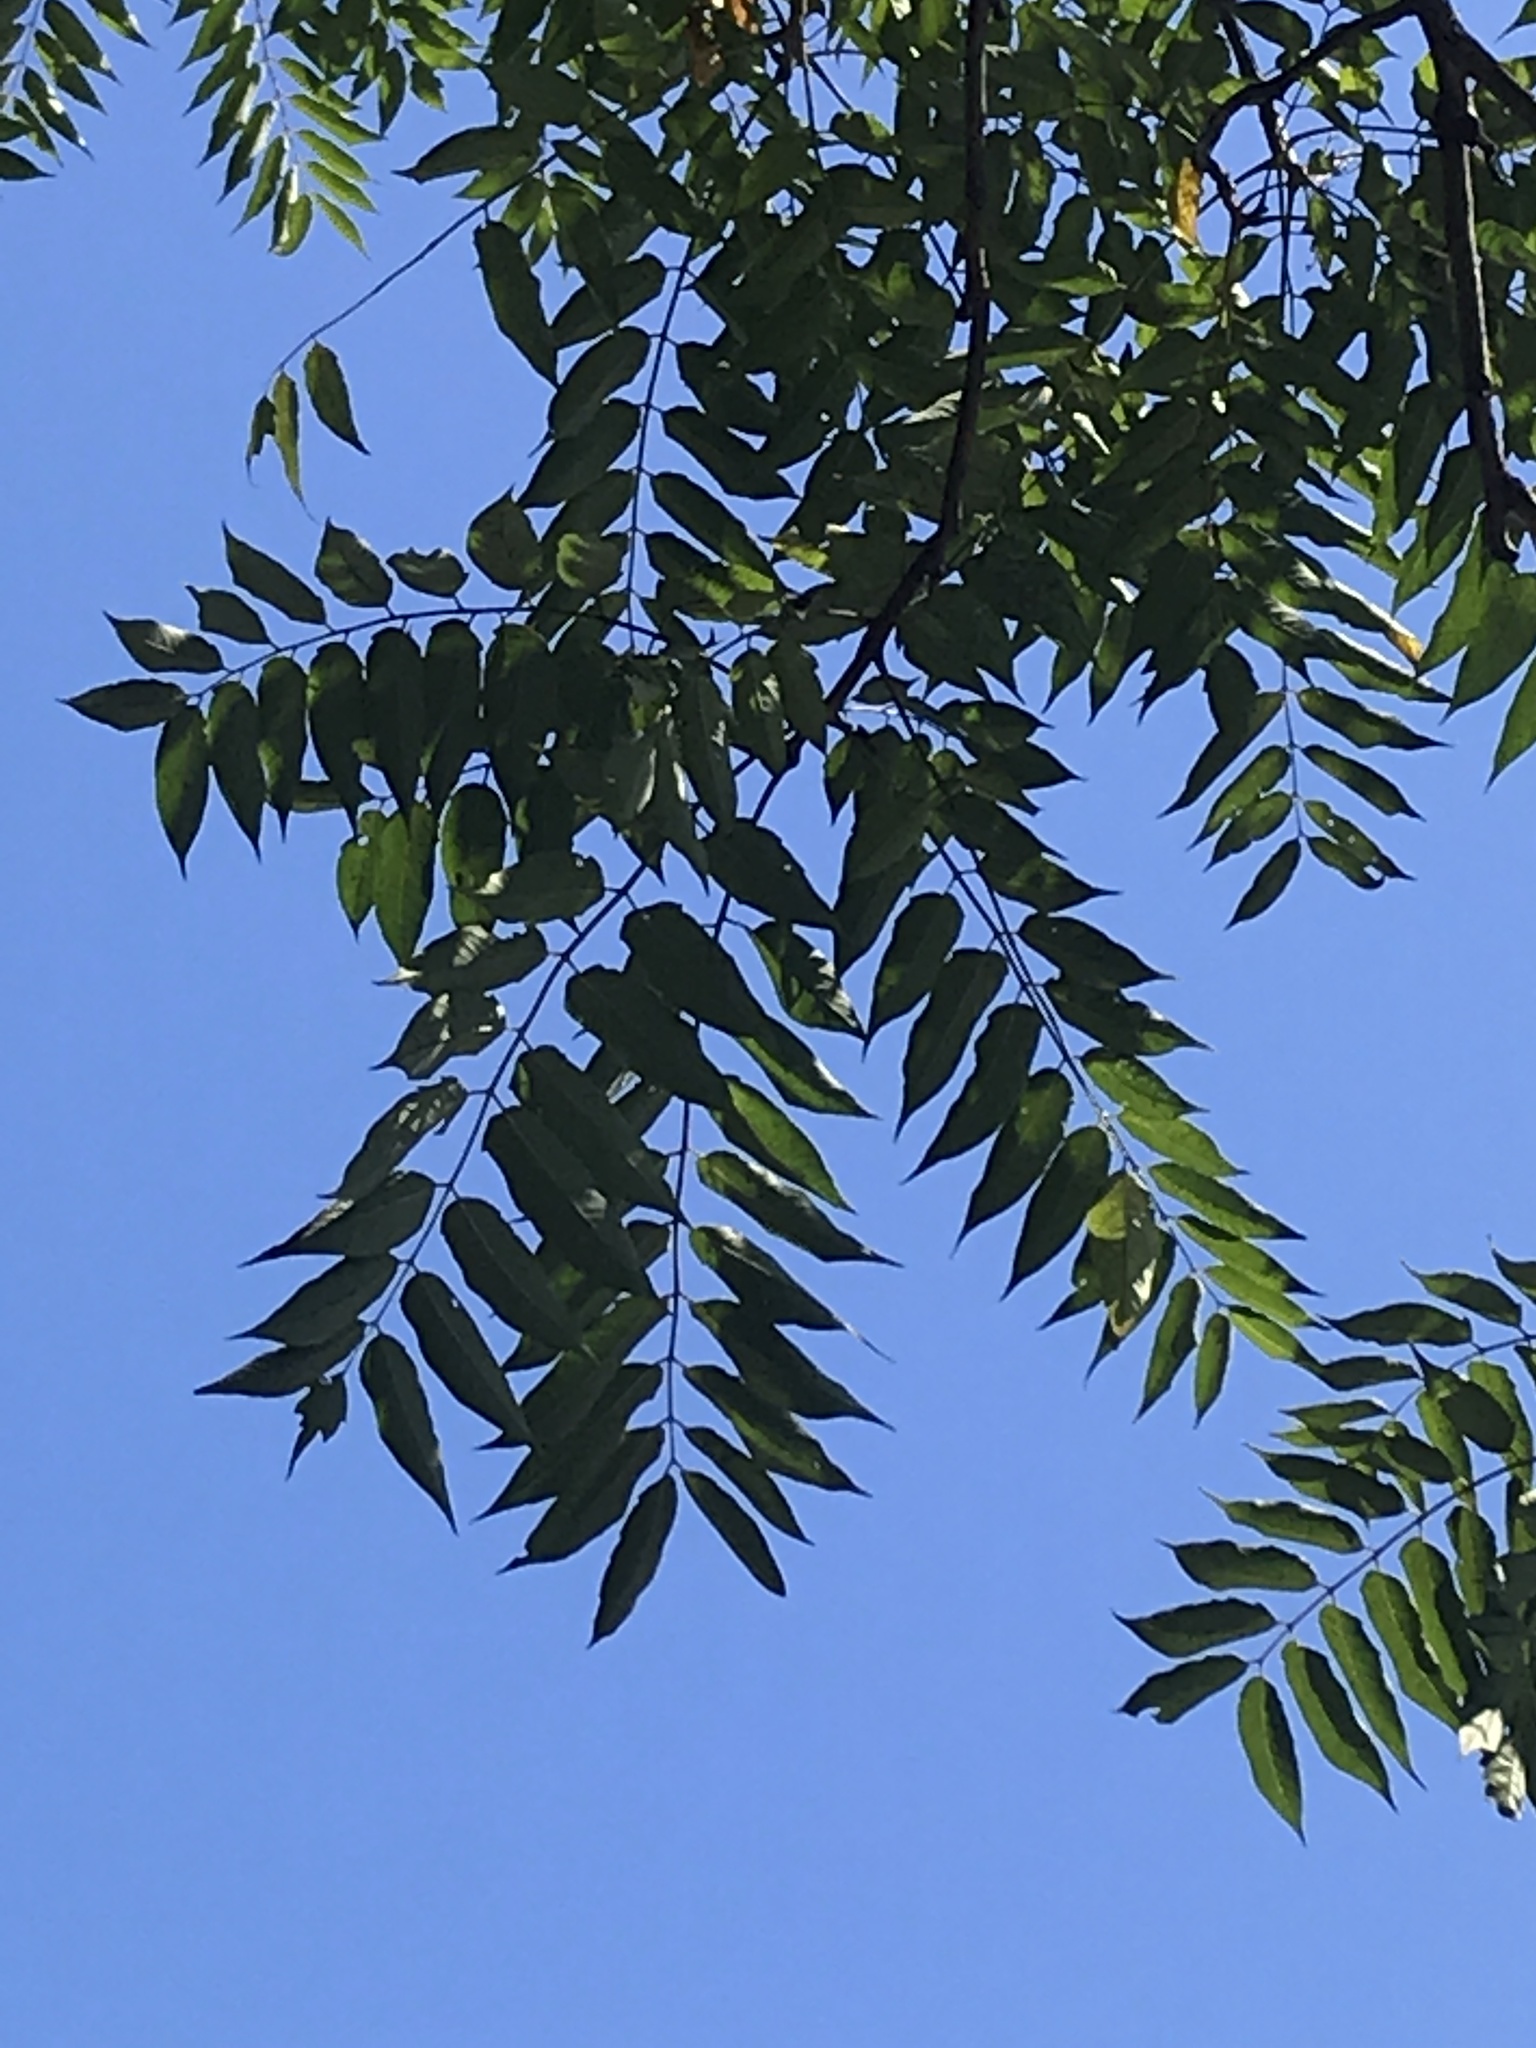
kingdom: Plantae
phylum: Tracheophyta
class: Magnoliopsida
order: Sapindales
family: Simaroubaceae
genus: Ailanthus
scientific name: Ailanthus altissima
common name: Tree-of-heaven
